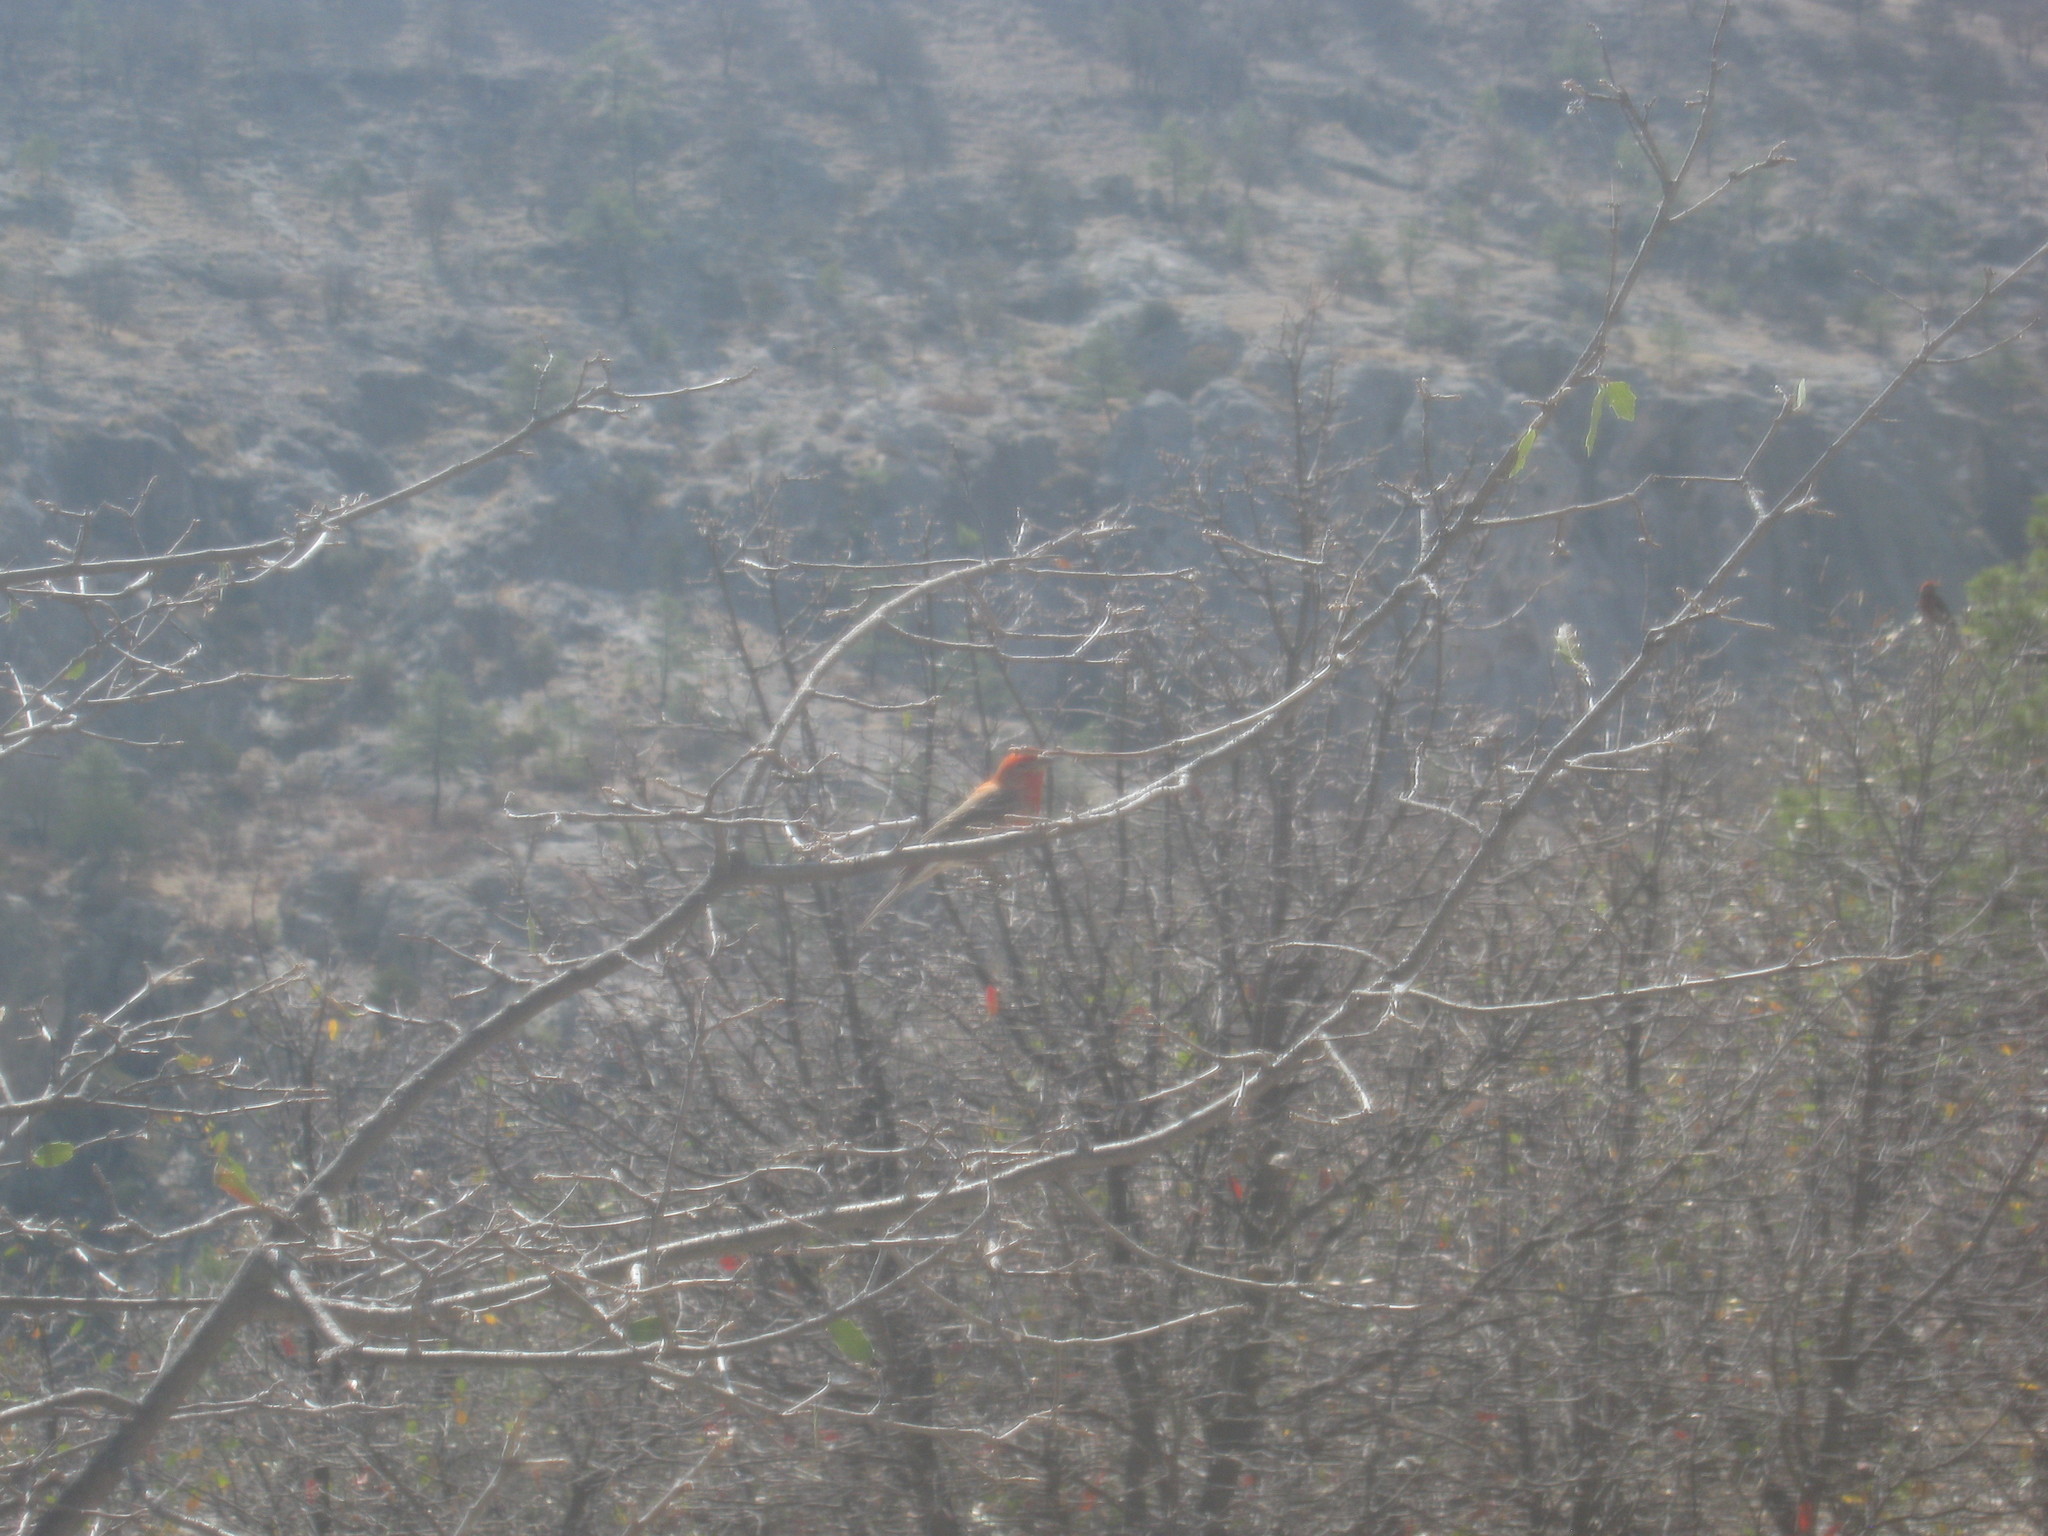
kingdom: Animalia
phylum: Chordata
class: Aves
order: Passeriformes
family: Fringillidae
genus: Haemorhous
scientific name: Haemorhous mexicanus
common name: House finch
